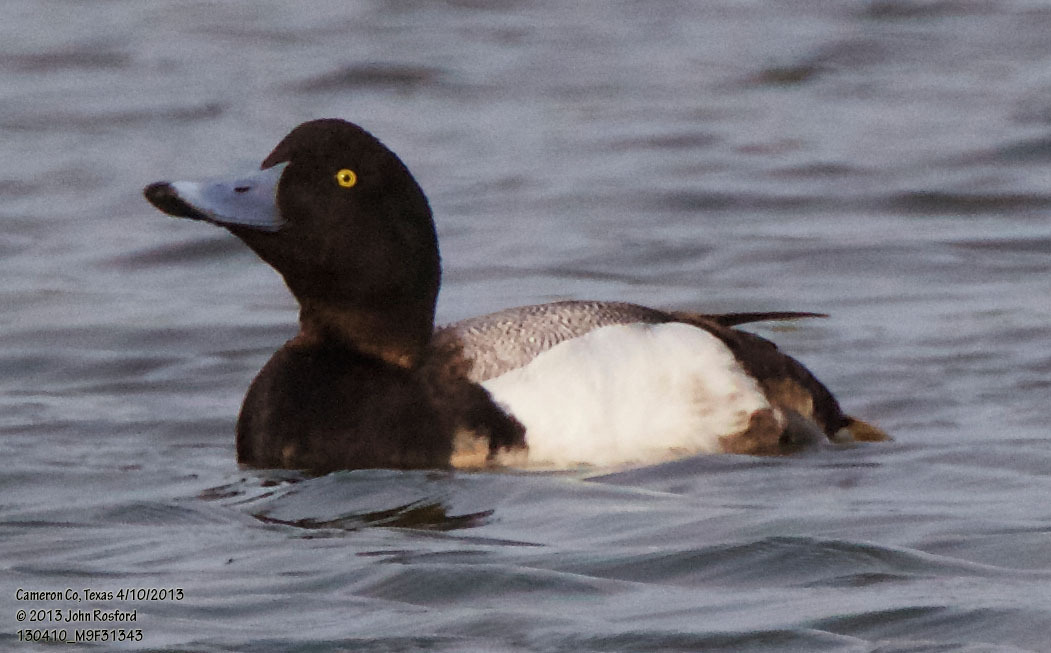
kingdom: Animalia
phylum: Chordata
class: Aves
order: Anseriformes
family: Anatidae
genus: Aythya
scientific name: Aythya affinis
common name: Lesser scaup
